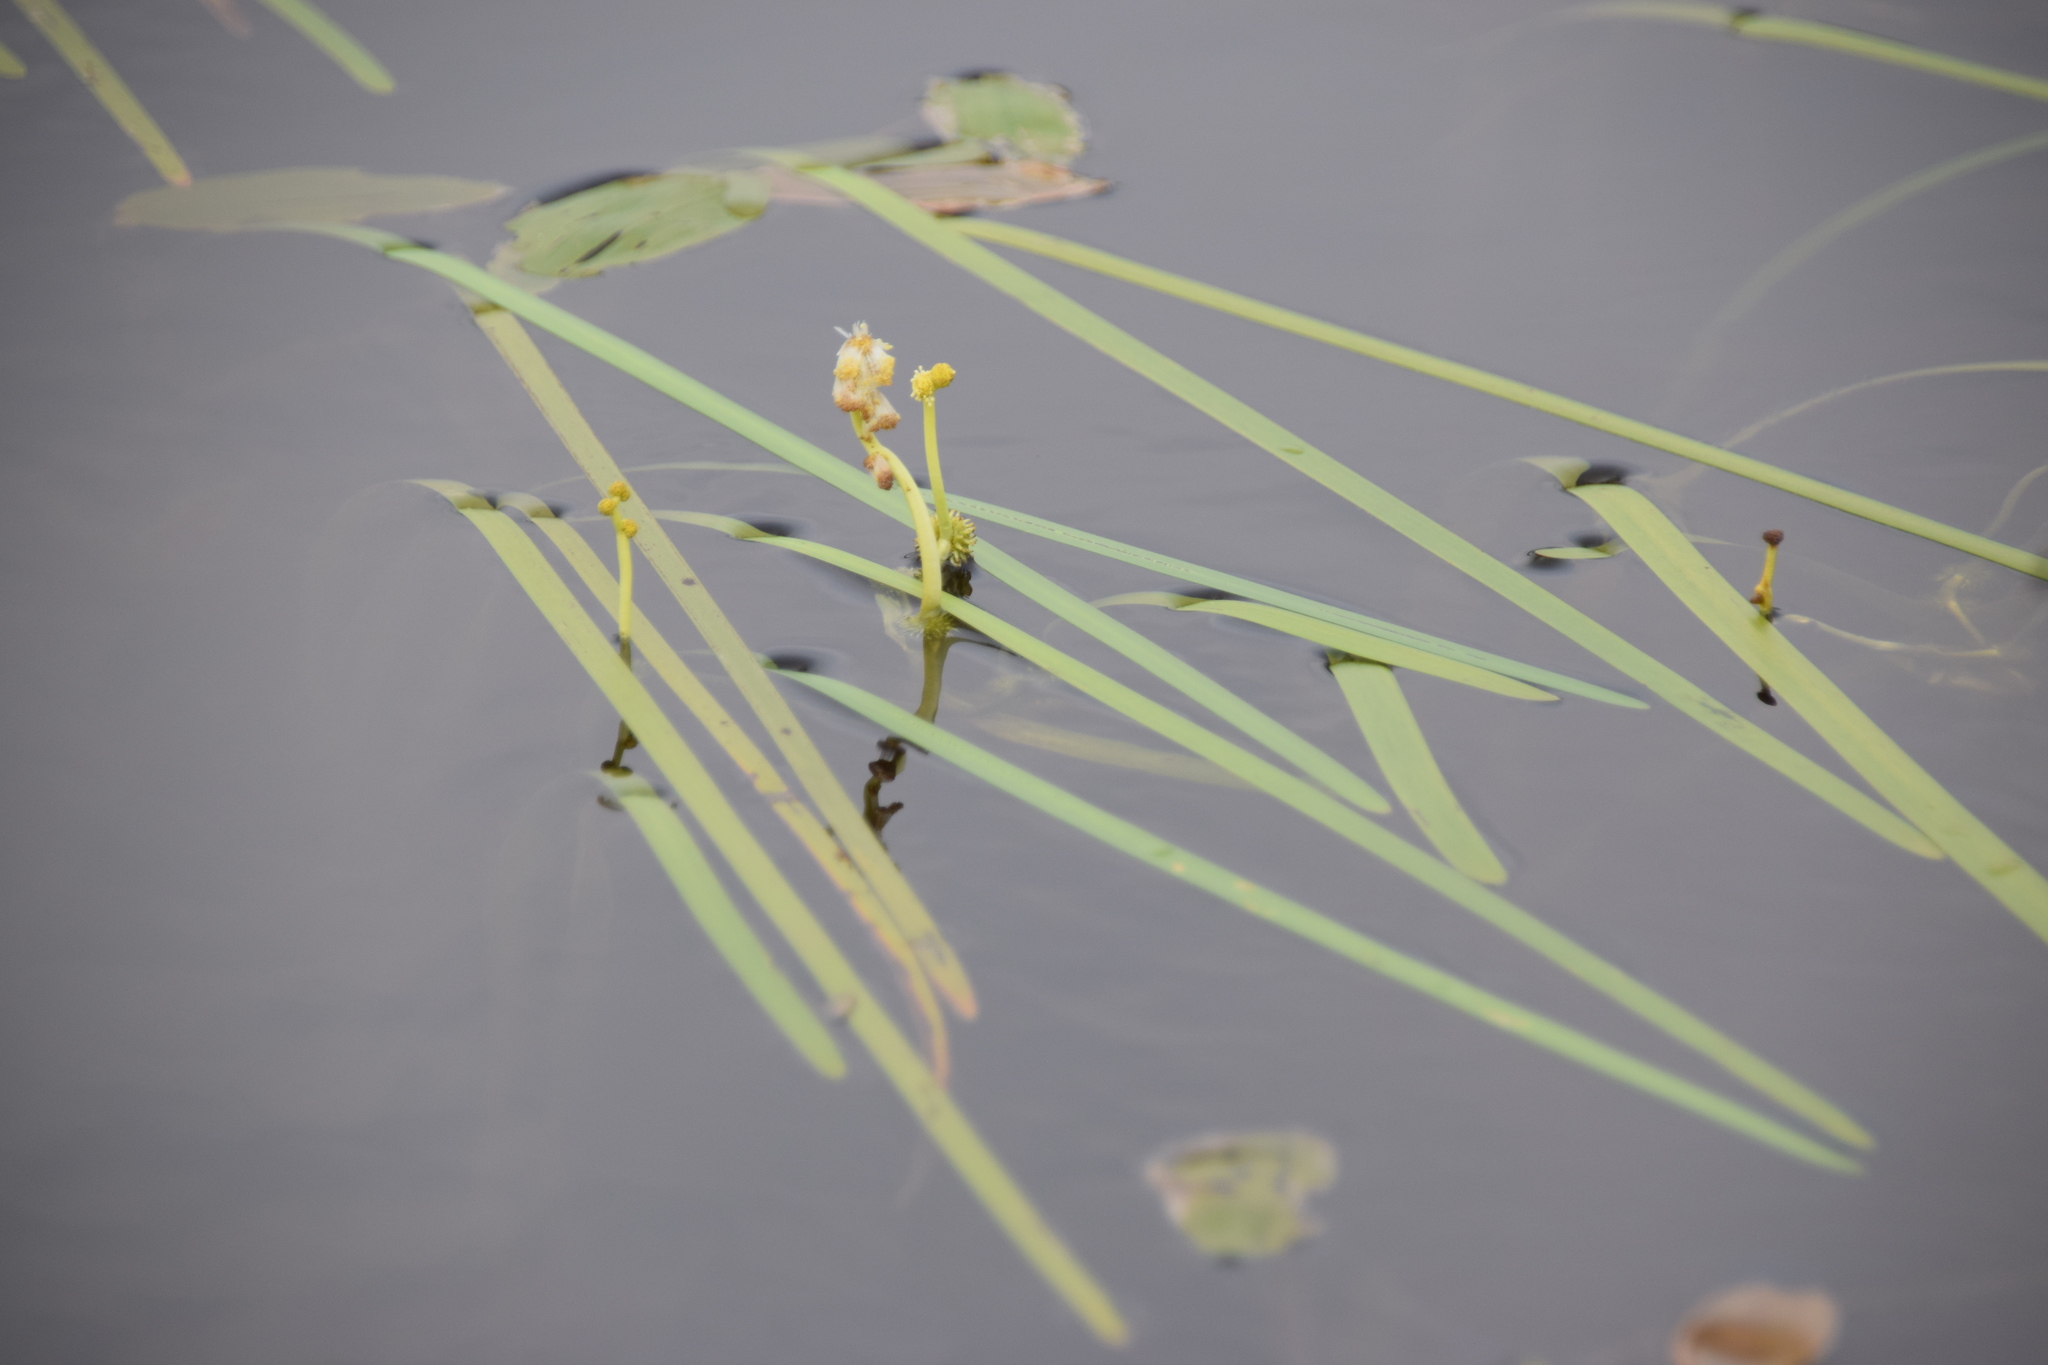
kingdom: Plantae
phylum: Tracheophyta
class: Liliopsida
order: Poales
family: Typhaceae
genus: Sparganium
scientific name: Sparganium fluctuans
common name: Floating burreed
